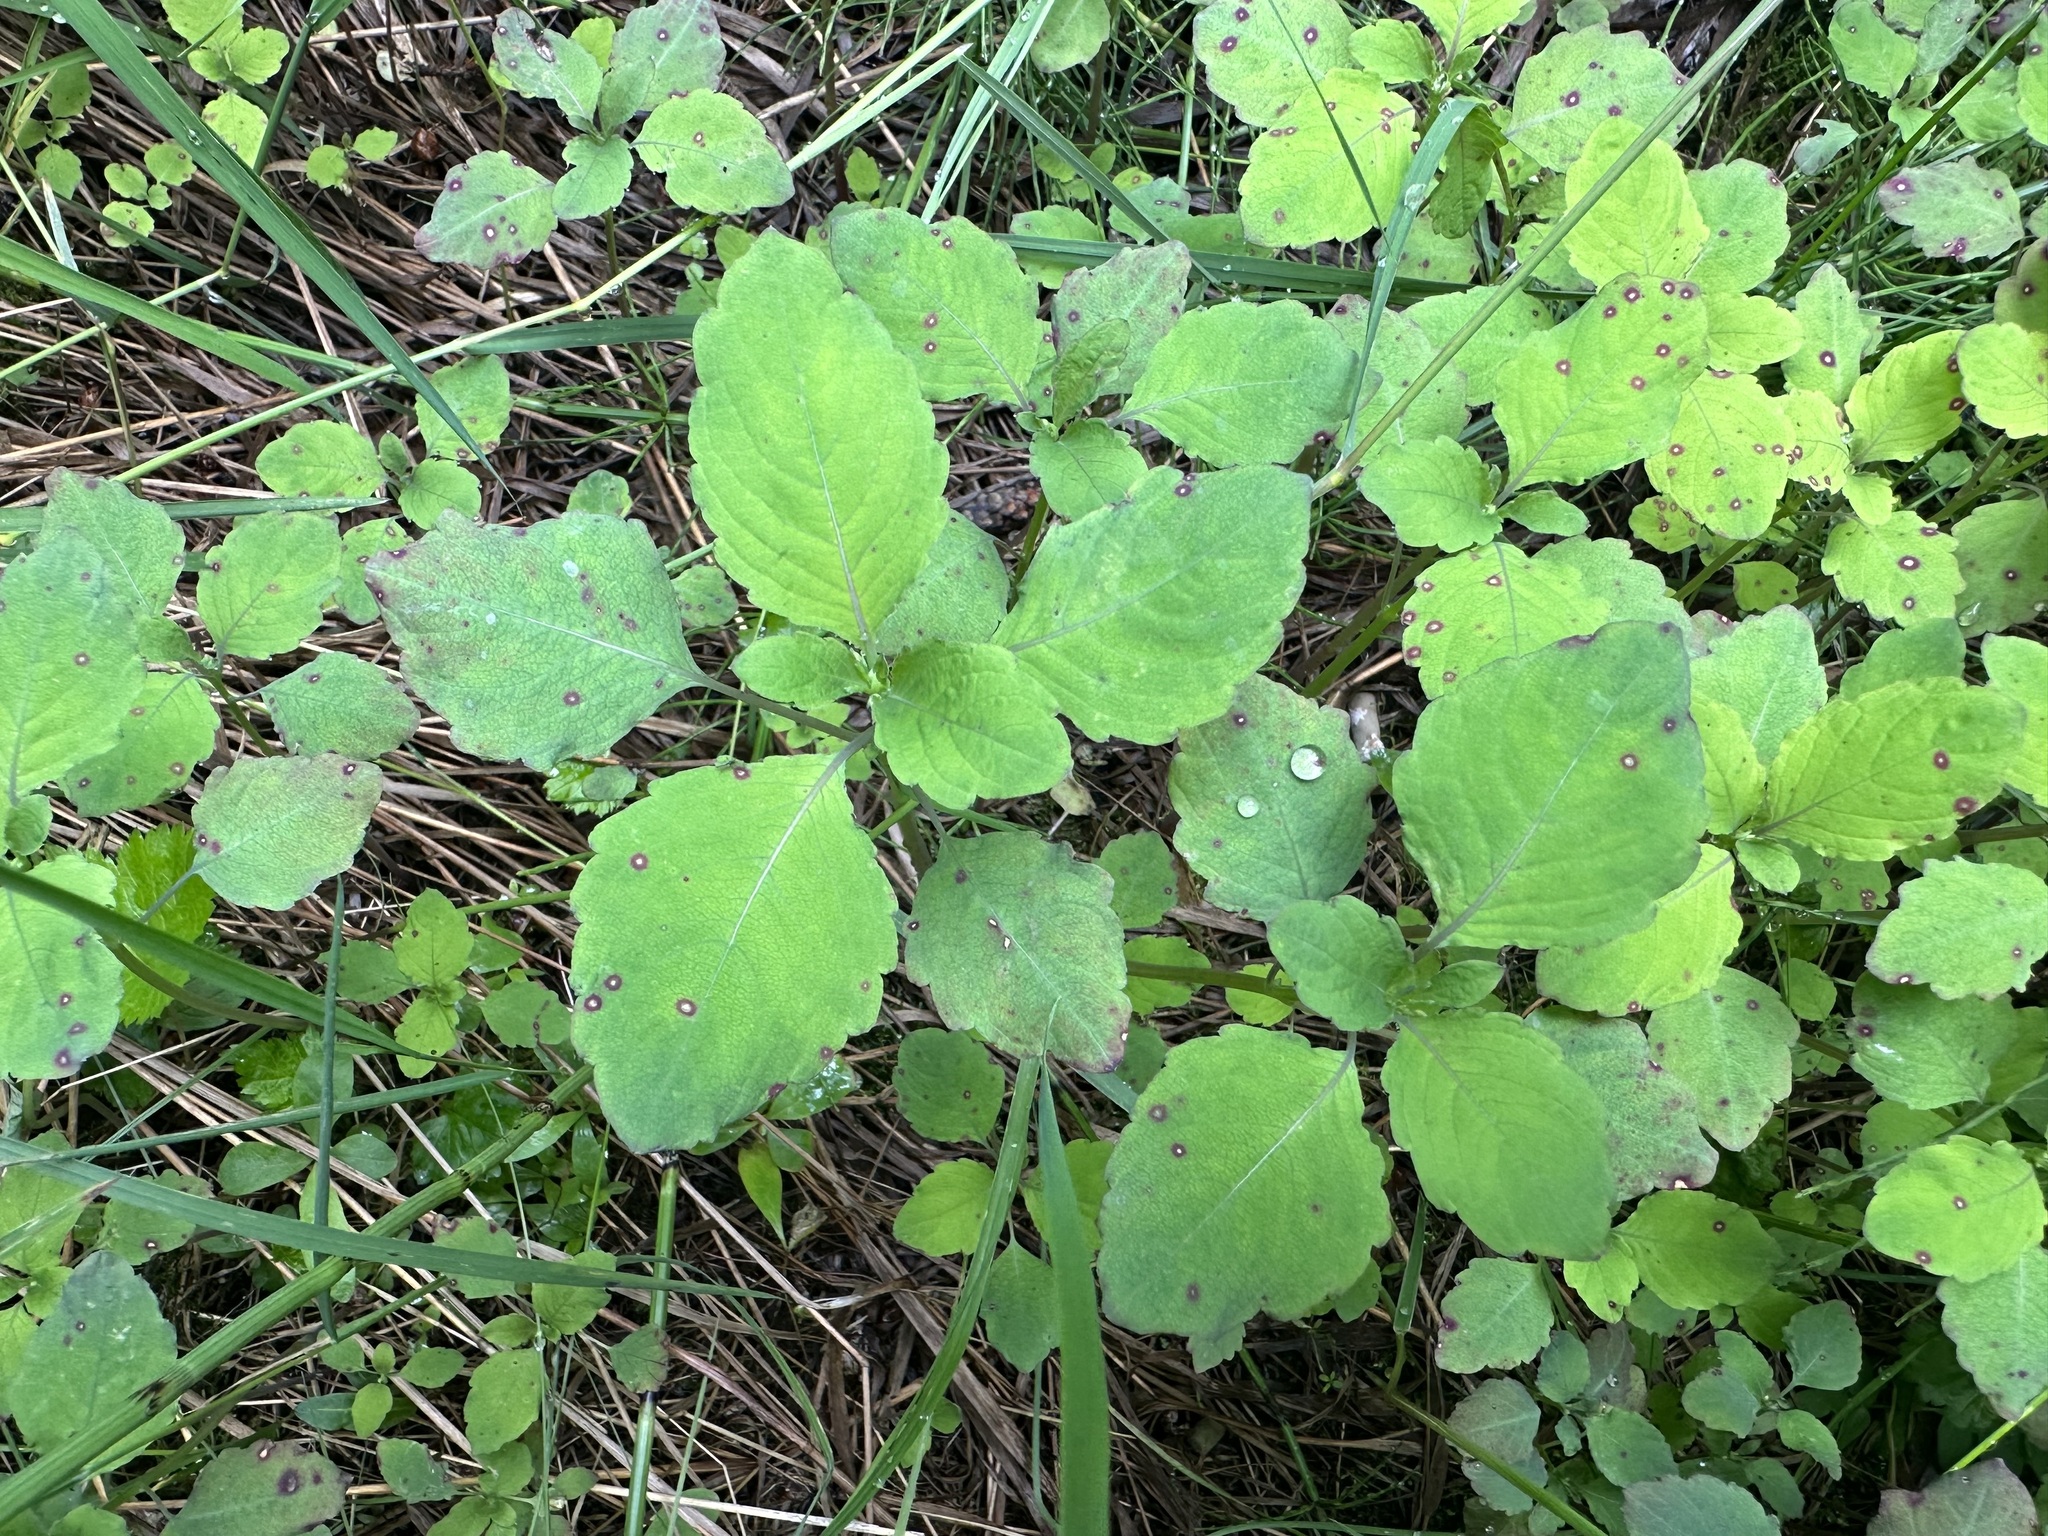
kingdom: Plantae
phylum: Tracheophyta
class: Magnoliopsida
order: Ericales
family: Balsaminaceae
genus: Impatiens
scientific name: Impatiens noli-tangere
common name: Touch-me-not balsam
